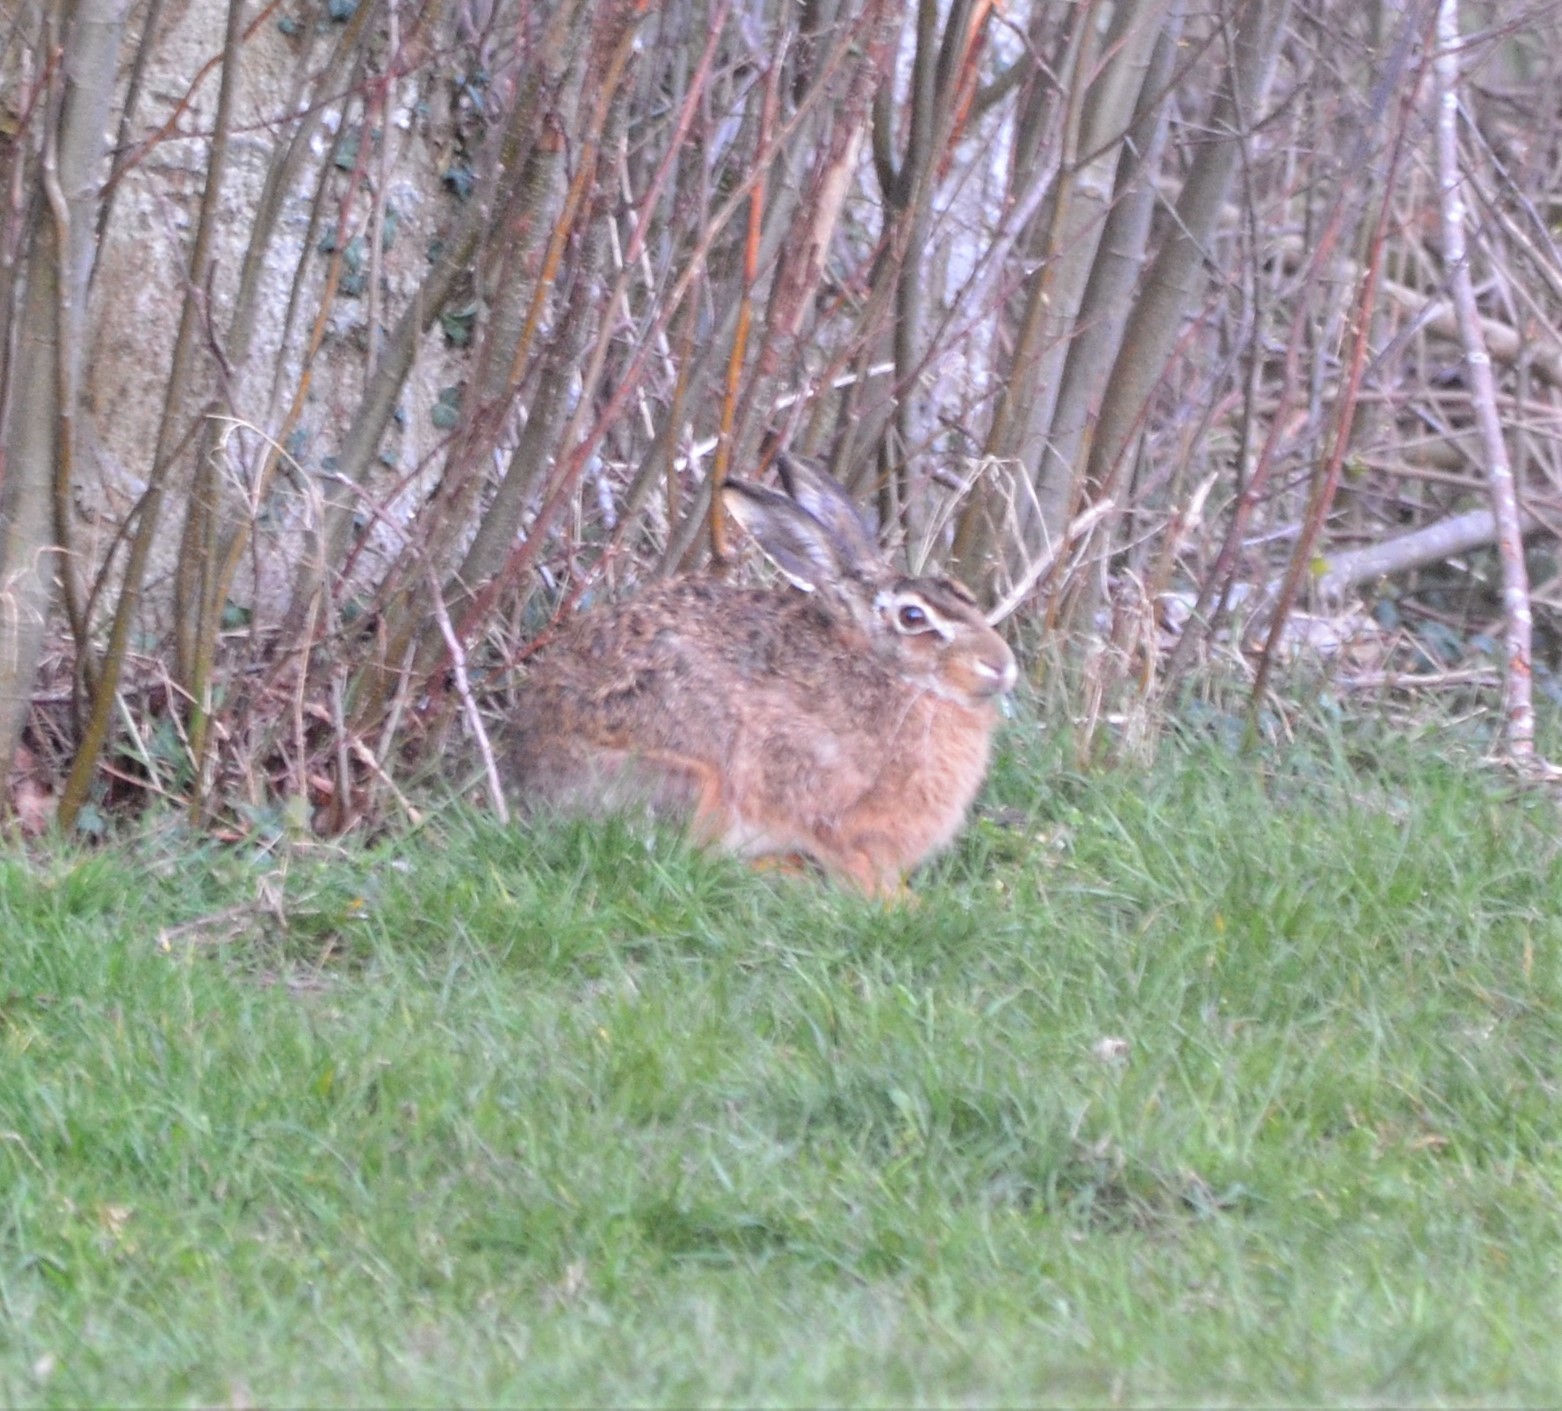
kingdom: Animalia
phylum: Chordata
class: Mammalia
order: Lagomorpha
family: Leporidae
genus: Lepus
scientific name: Lepus europaeus
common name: European hare
